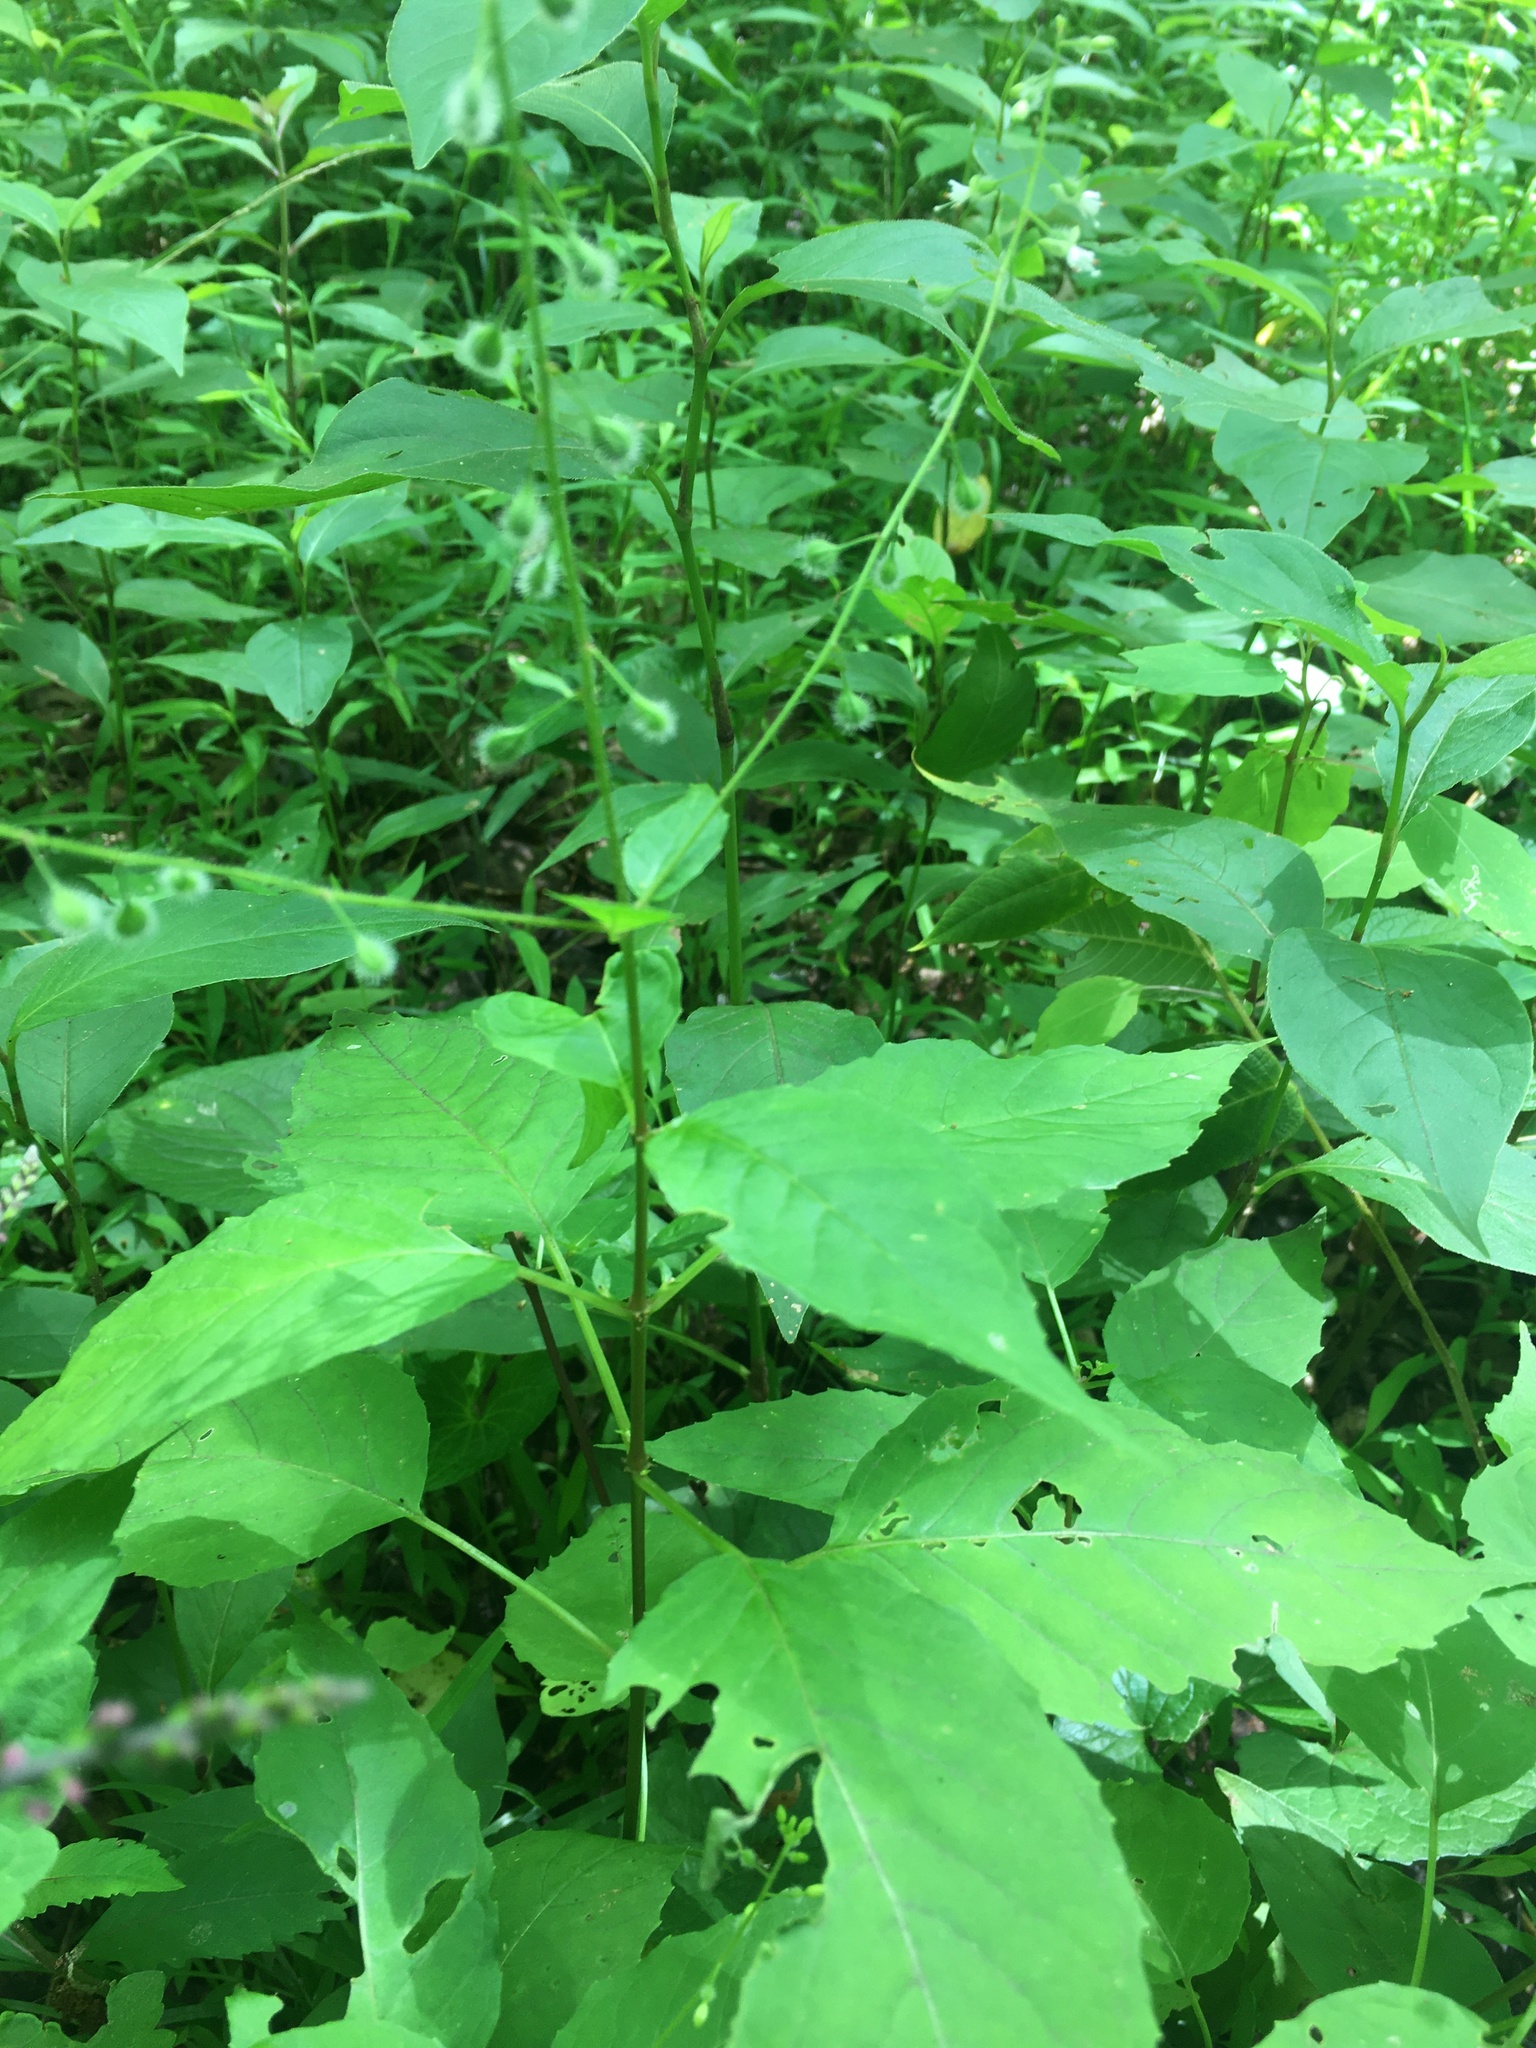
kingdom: Plantae
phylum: Tracheophyta
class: Magnoliopsida
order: Myrtales
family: Onagraceae
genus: Circaea
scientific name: Circaea canadensis
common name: Broad-leaved enchanter's nightshade
